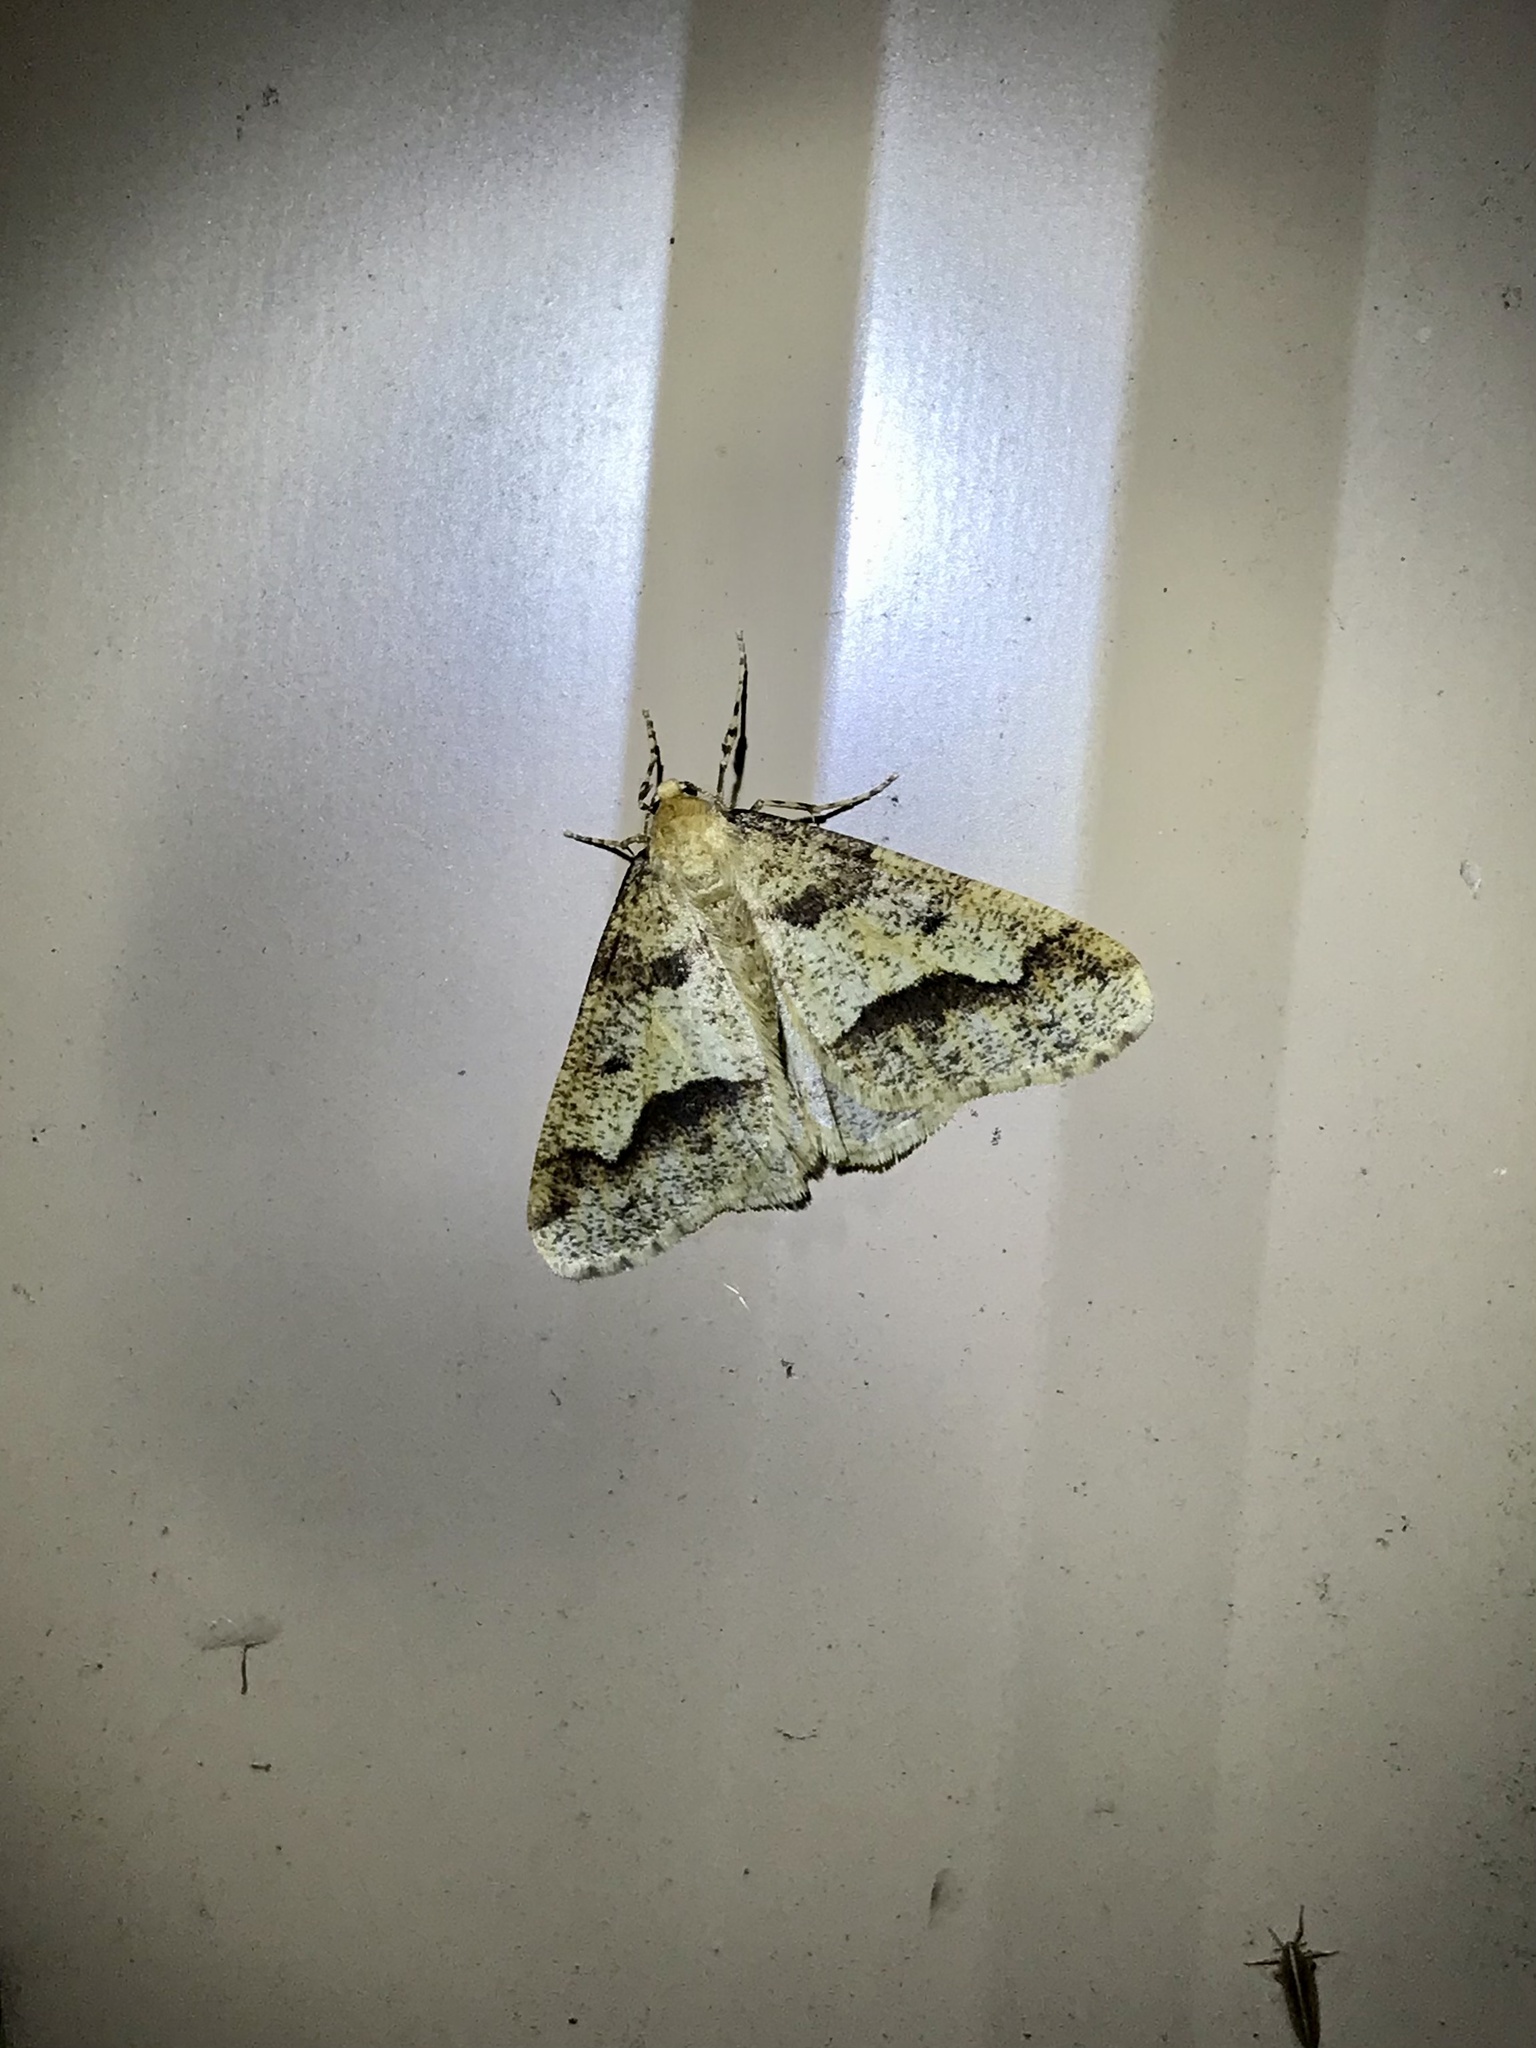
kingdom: Animalia
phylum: Arthropoda
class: Insecta
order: Lepidoptera
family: Geometridae
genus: Erannis
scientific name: Erannis tiliaria
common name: Linden looper
